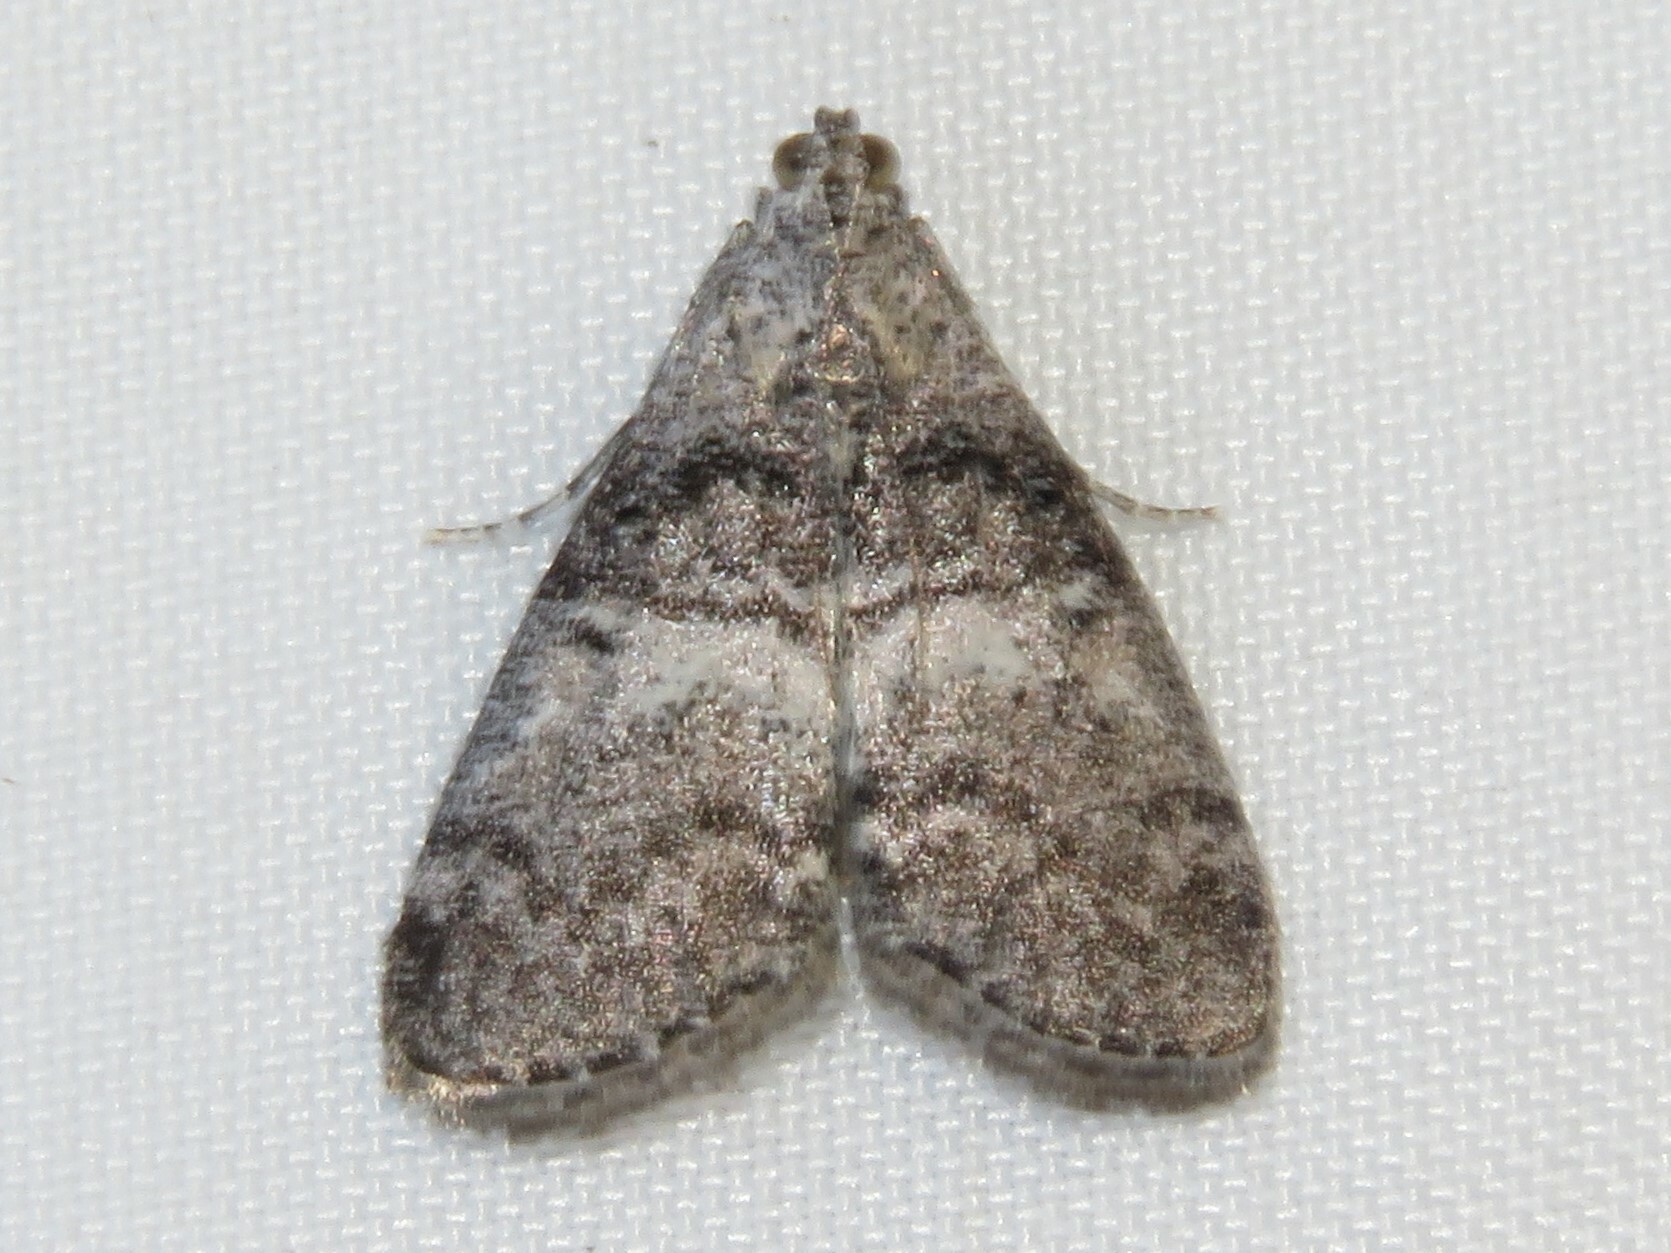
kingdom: Animalia
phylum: Arthropoda
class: Insecta
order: Lepidoptera
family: Pyralidae
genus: Pococera
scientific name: Pococera asperatella
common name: Maple webworm moth
